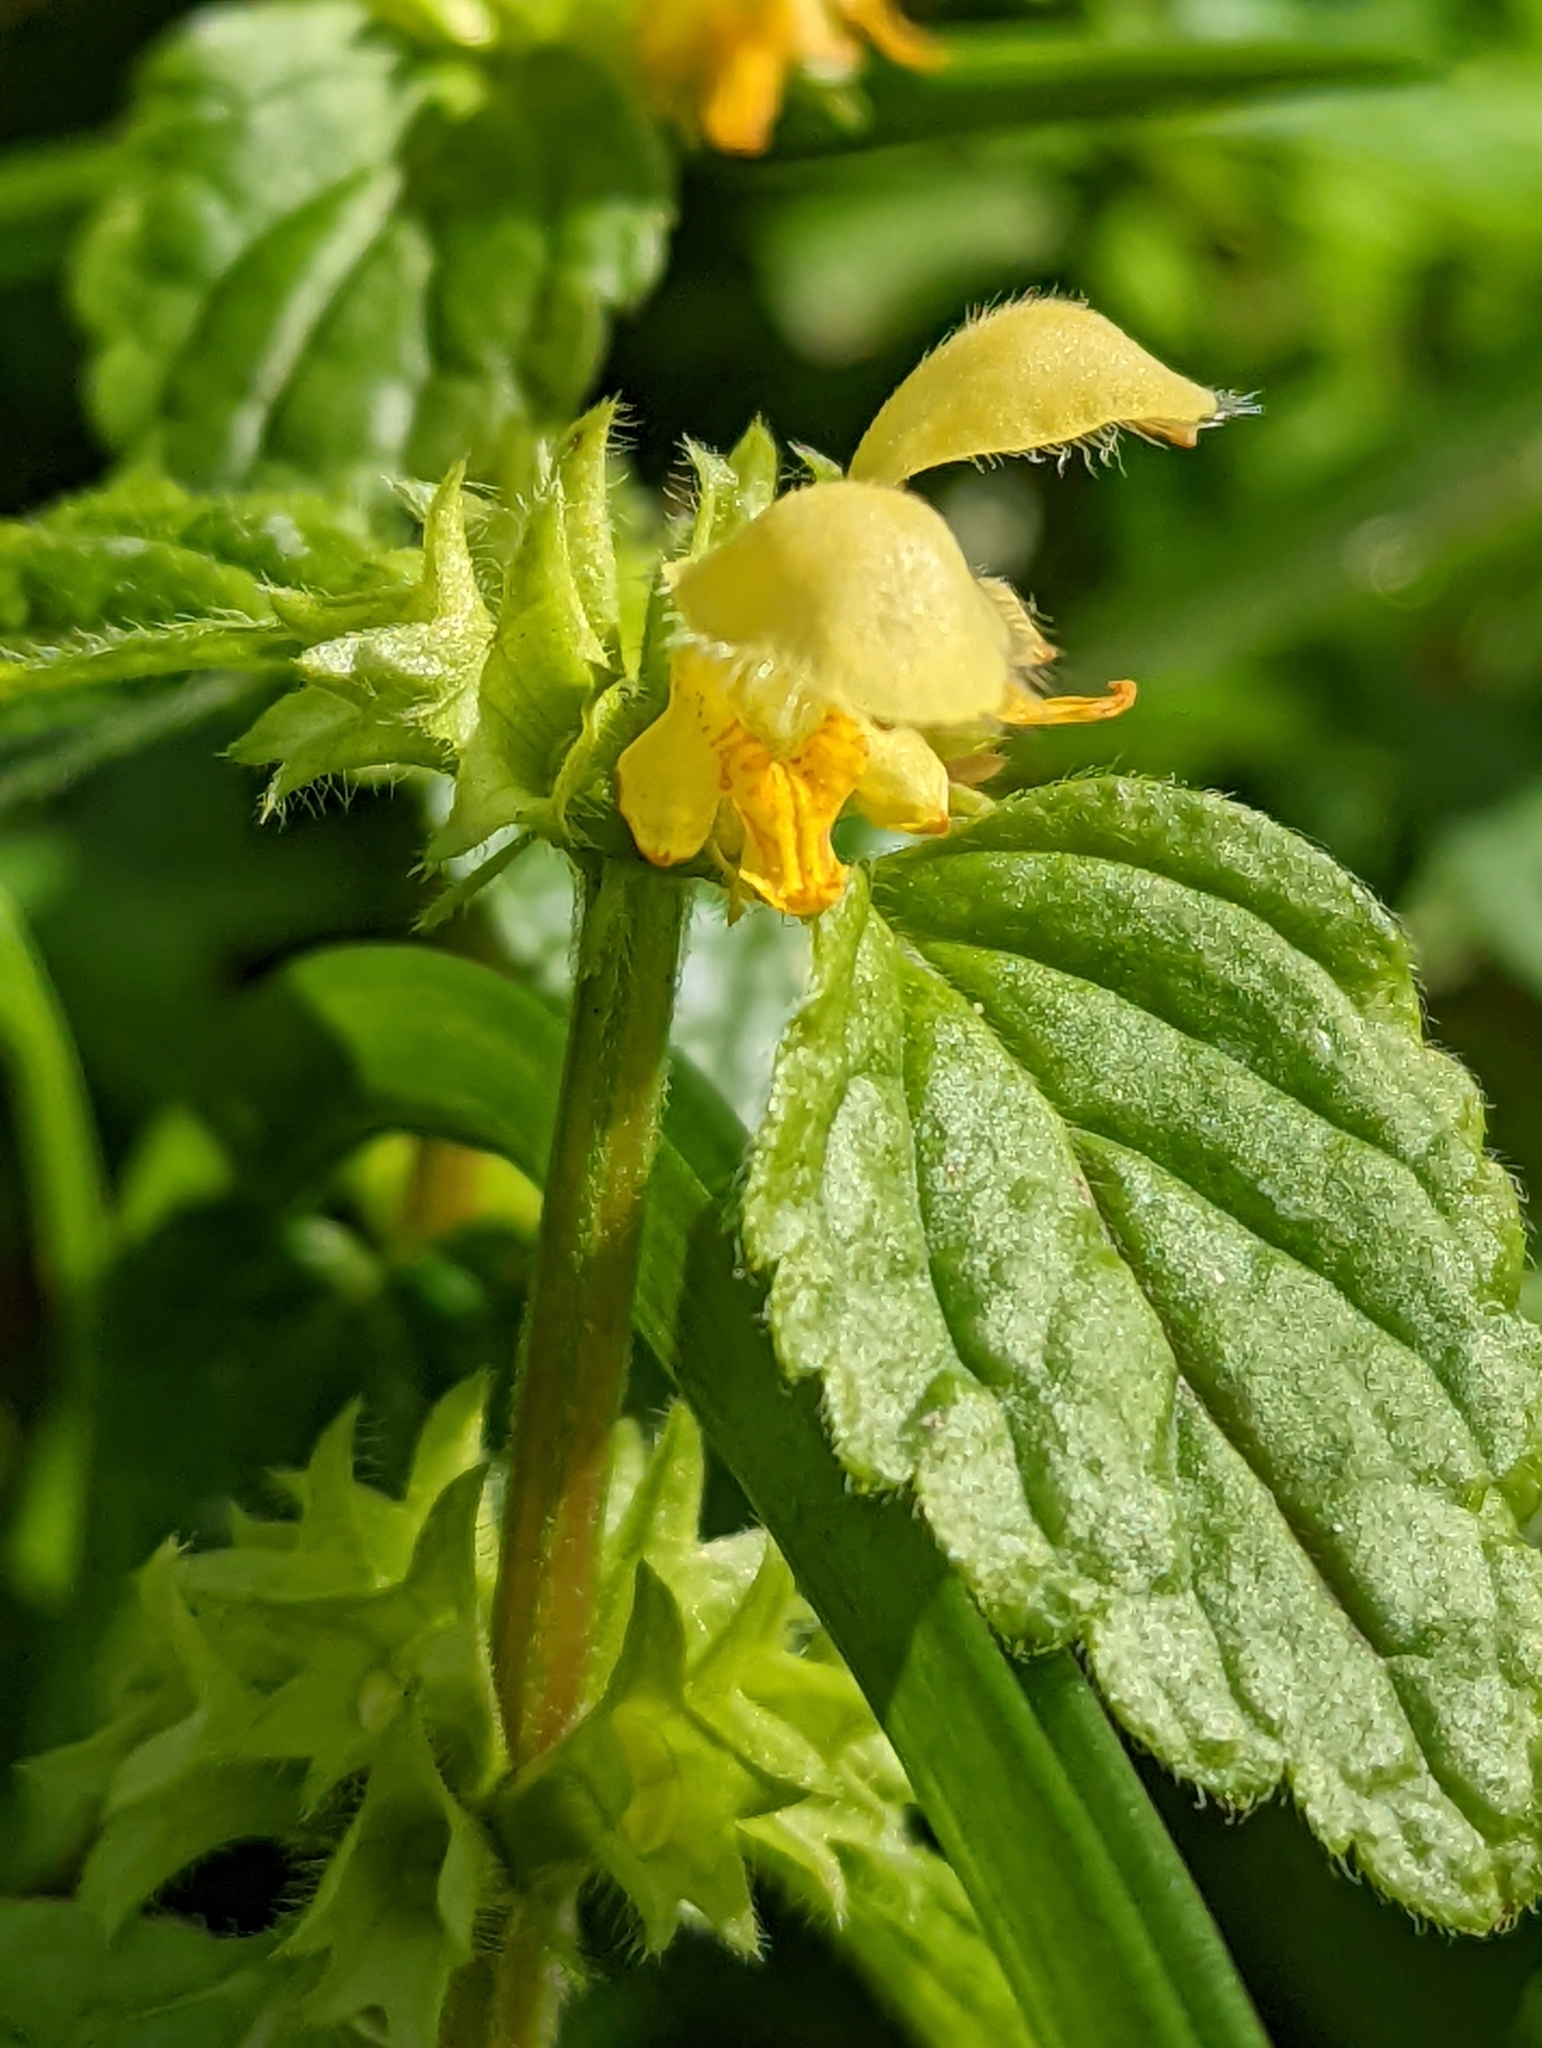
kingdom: Plantae
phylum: Tracheophyta
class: Magnoliopsida
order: Lamiales
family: Lamiaceae
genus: Lamium
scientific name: Lamium galeobdolon
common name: Yellow archangel
